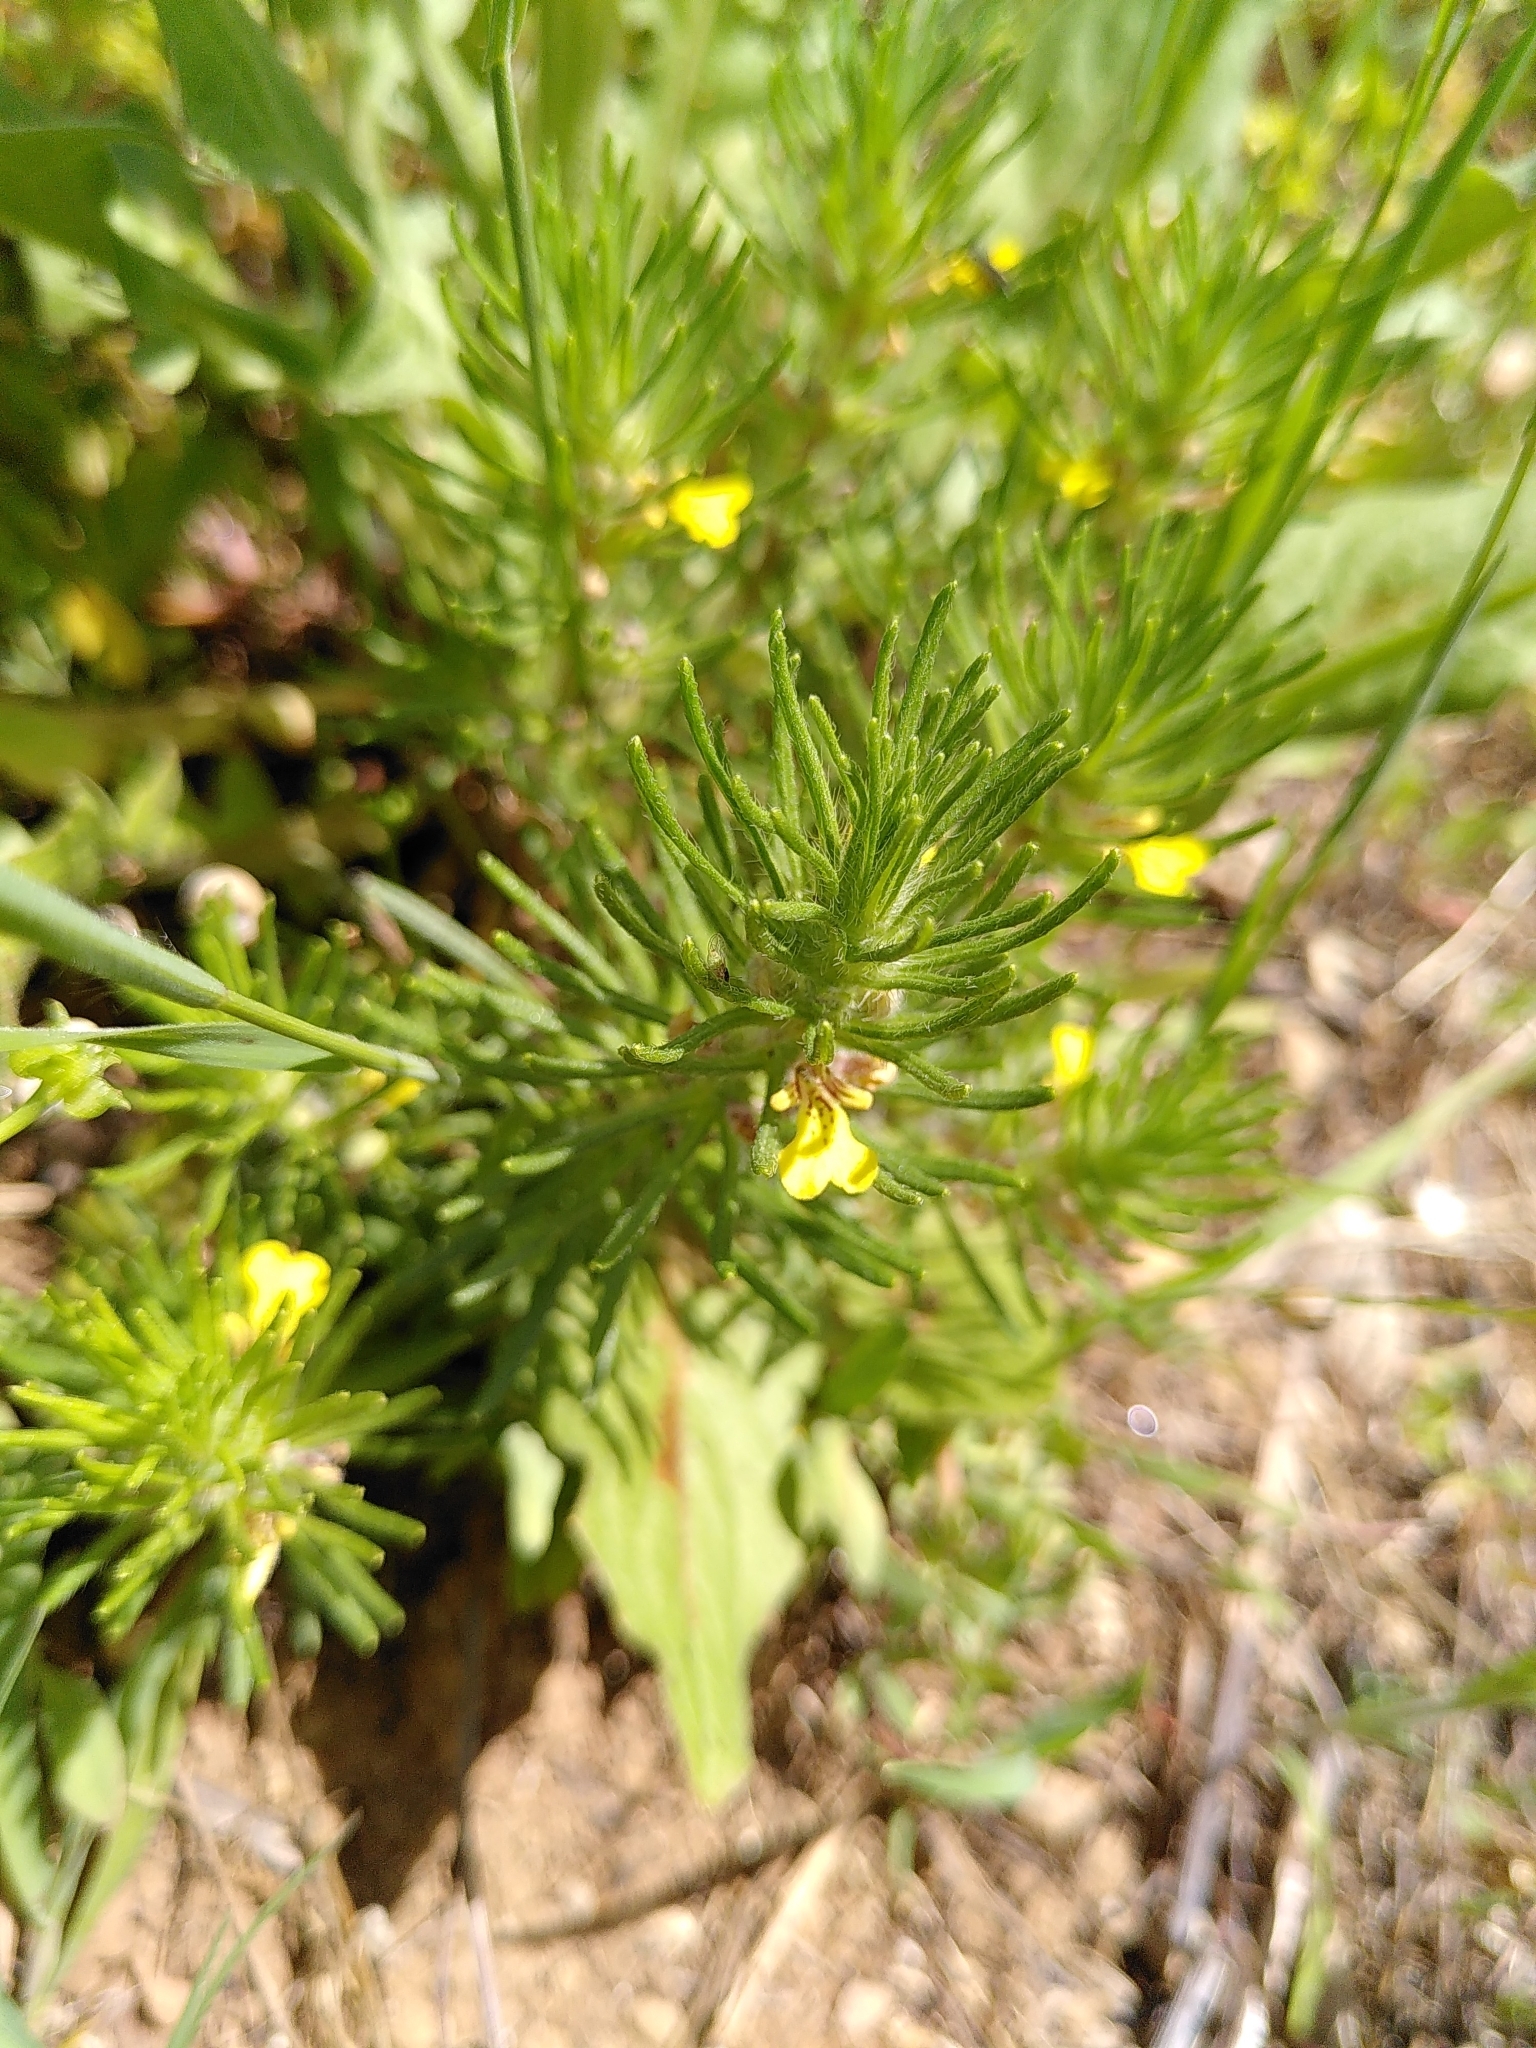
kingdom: Plantae
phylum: Tracheophyta
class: Magnoliopsida
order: Lamiales
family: Lamiaceae
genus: Ajuga
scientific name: Ajuga chamaepitys
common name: Ground-pine
